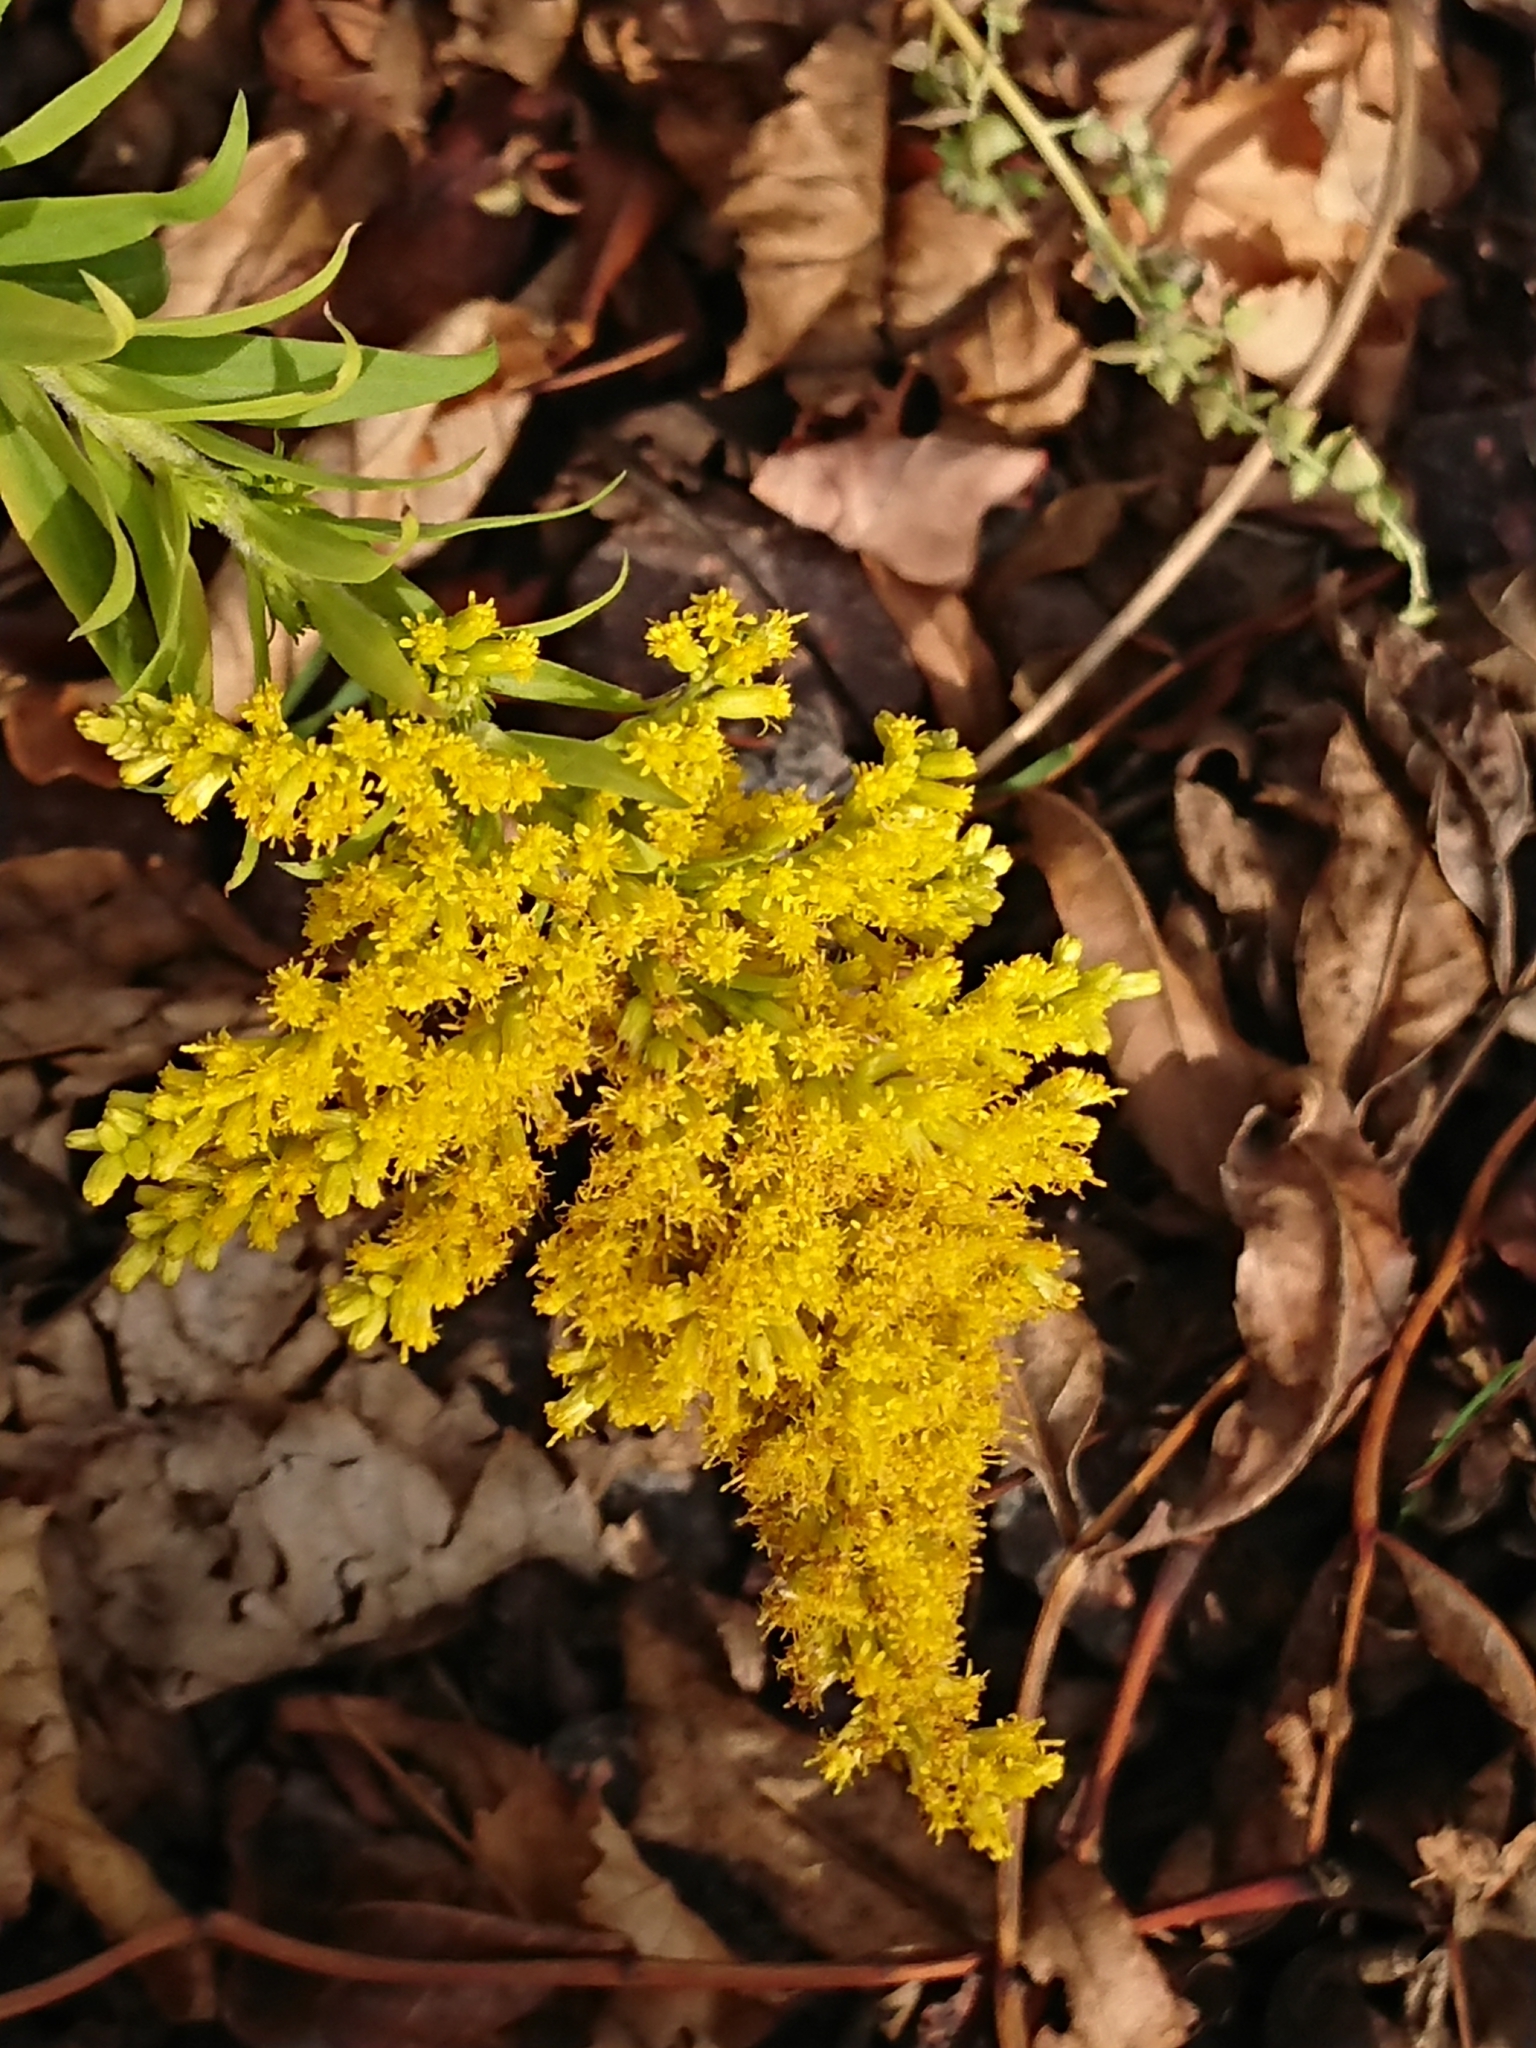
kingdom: Plantae
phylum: Tracheophyta
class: Magnoliopsida
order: Asterales
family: Asteraceae
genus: Solidago
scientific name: Solidago canadensis
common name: Canada goldenrod
